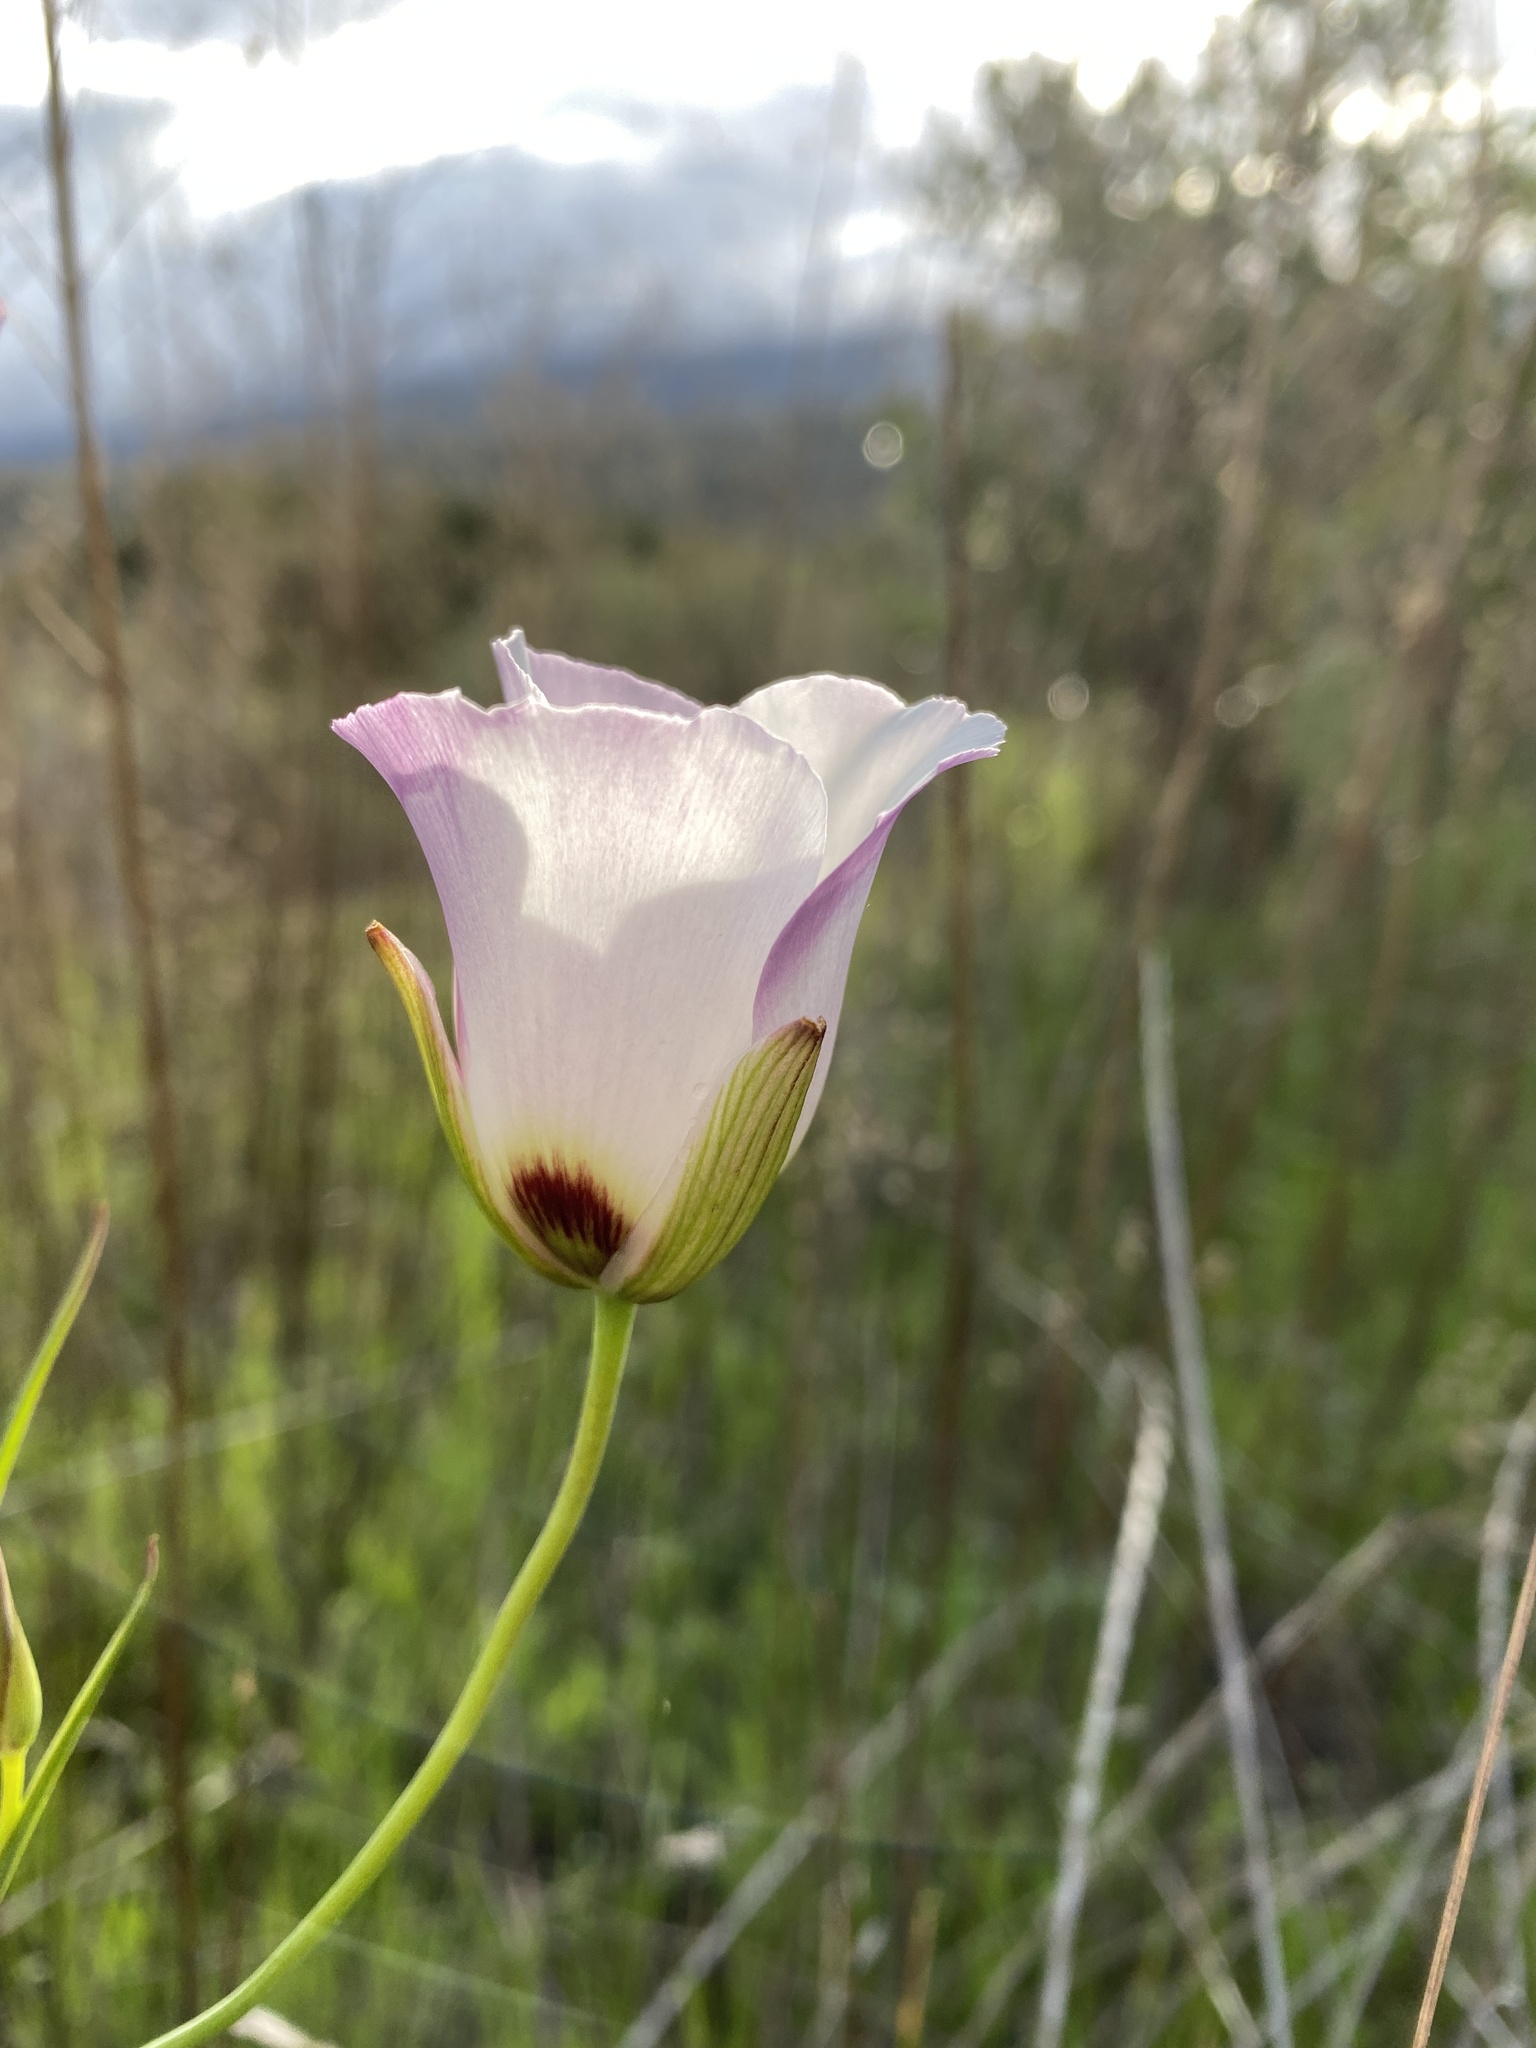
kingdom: Plantae
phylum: Tracheophyta
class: Liliopsida
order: Liliales
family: Liliaceae
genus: Calochortus
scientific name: Calochortus catalinae
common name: Catalina mariposa-lily
